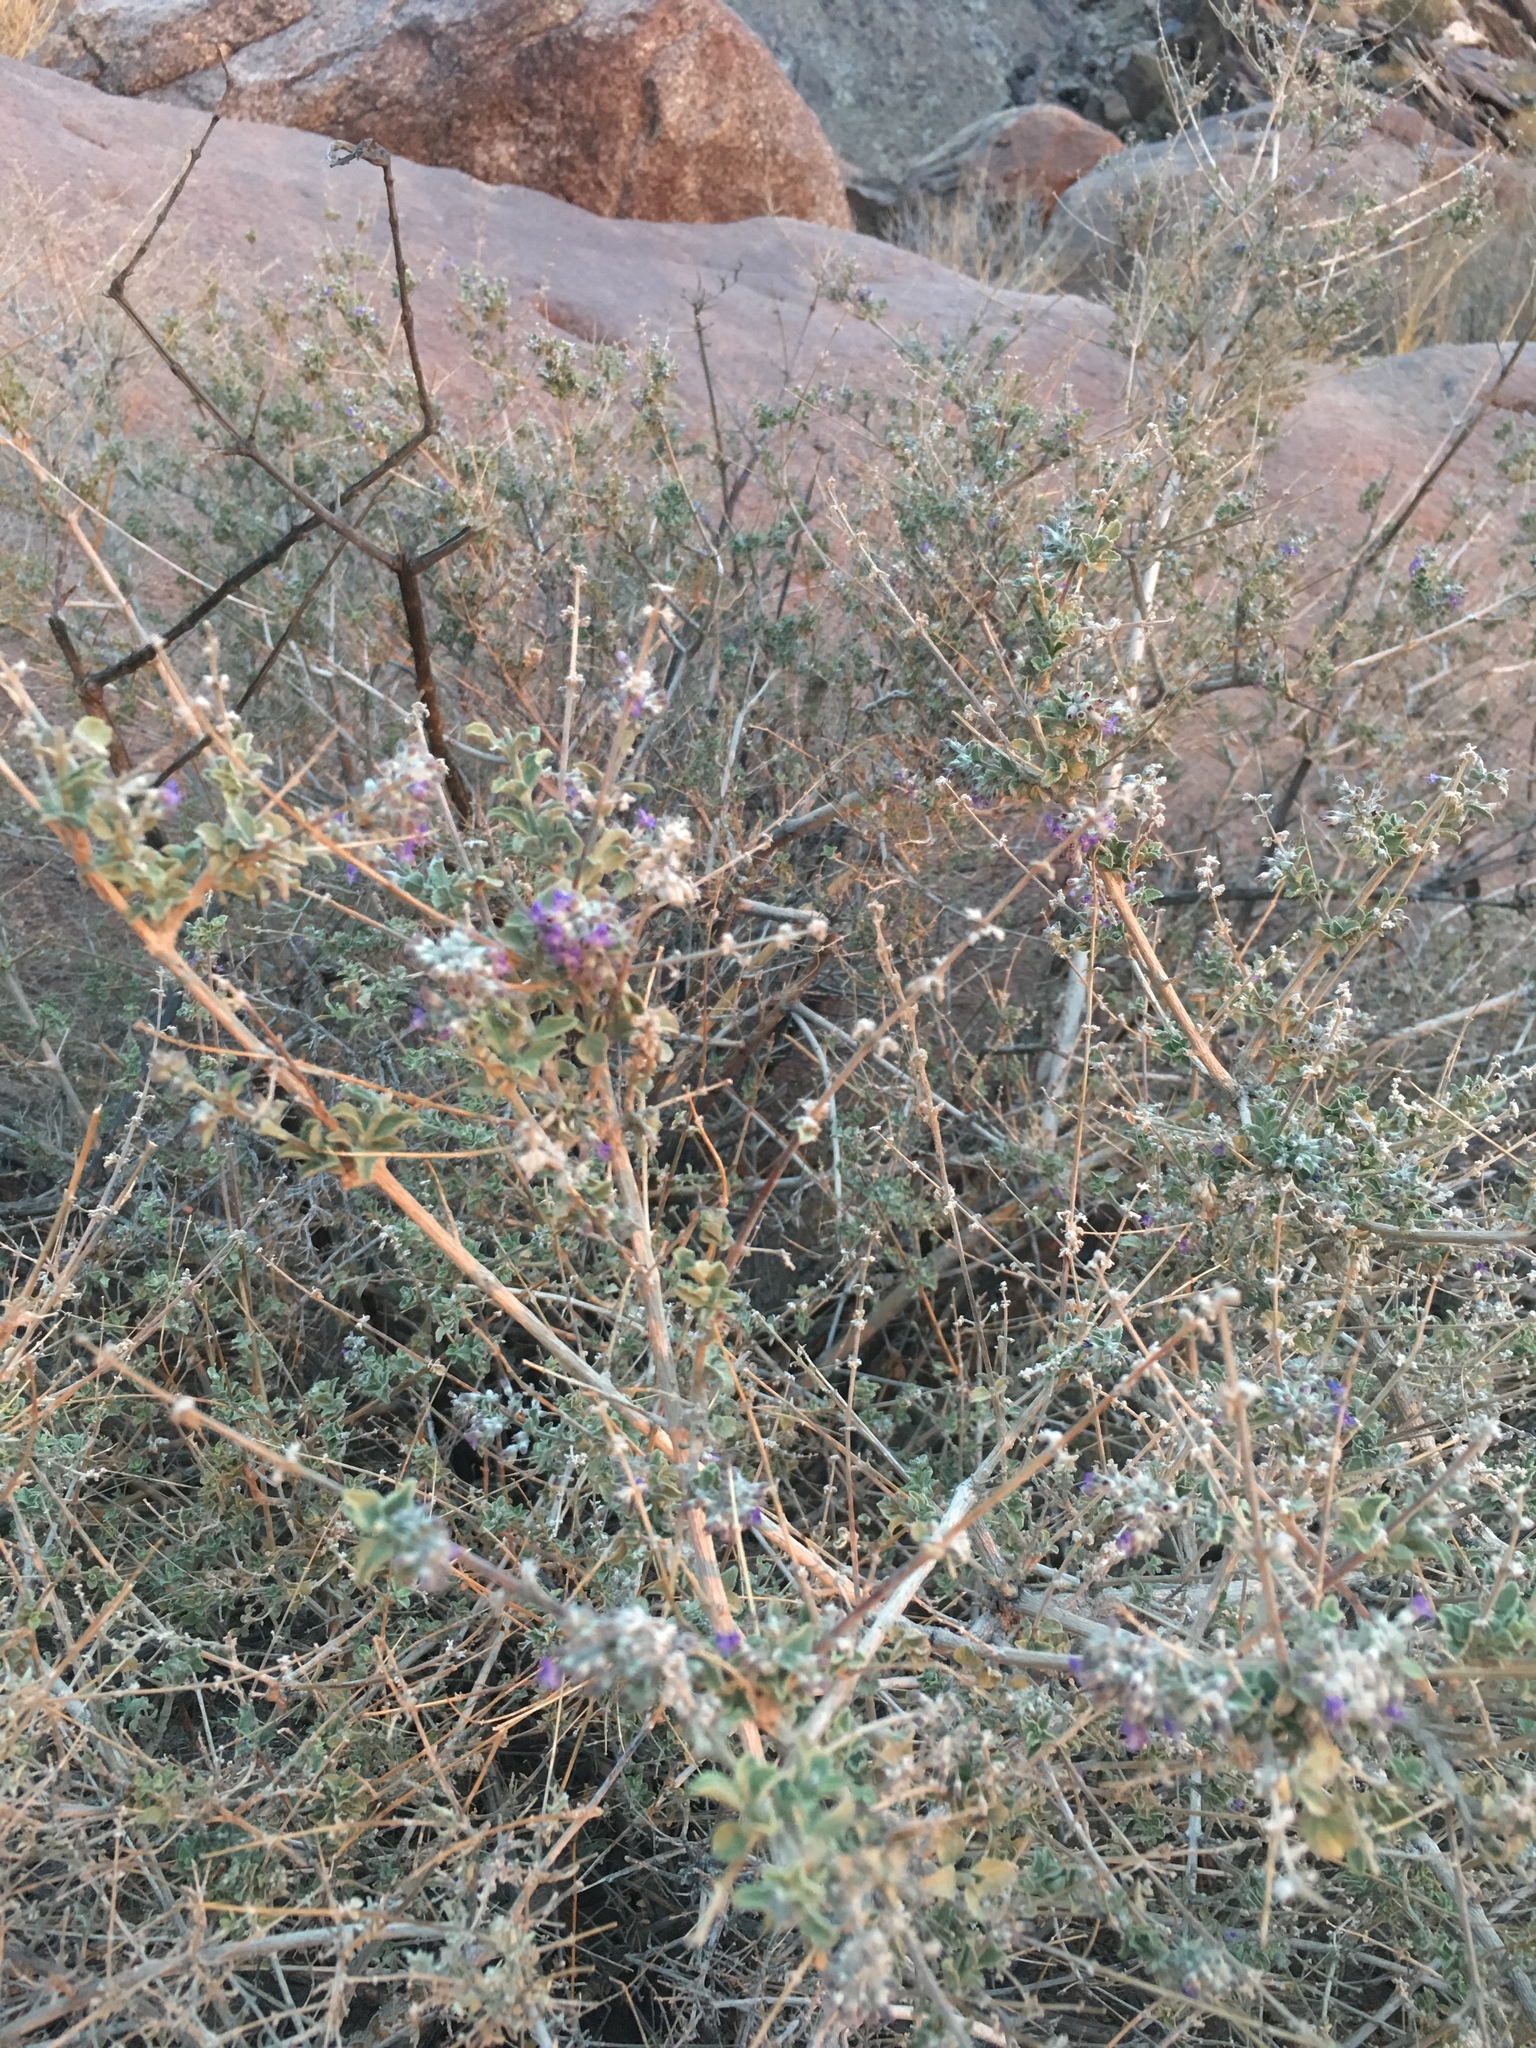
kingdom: Plantae
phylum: Tracheophyta
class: Magnoliopsida
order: Lamiales
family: Lamiaceae
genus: Condea
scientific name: Condea emoryi
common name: Chia
